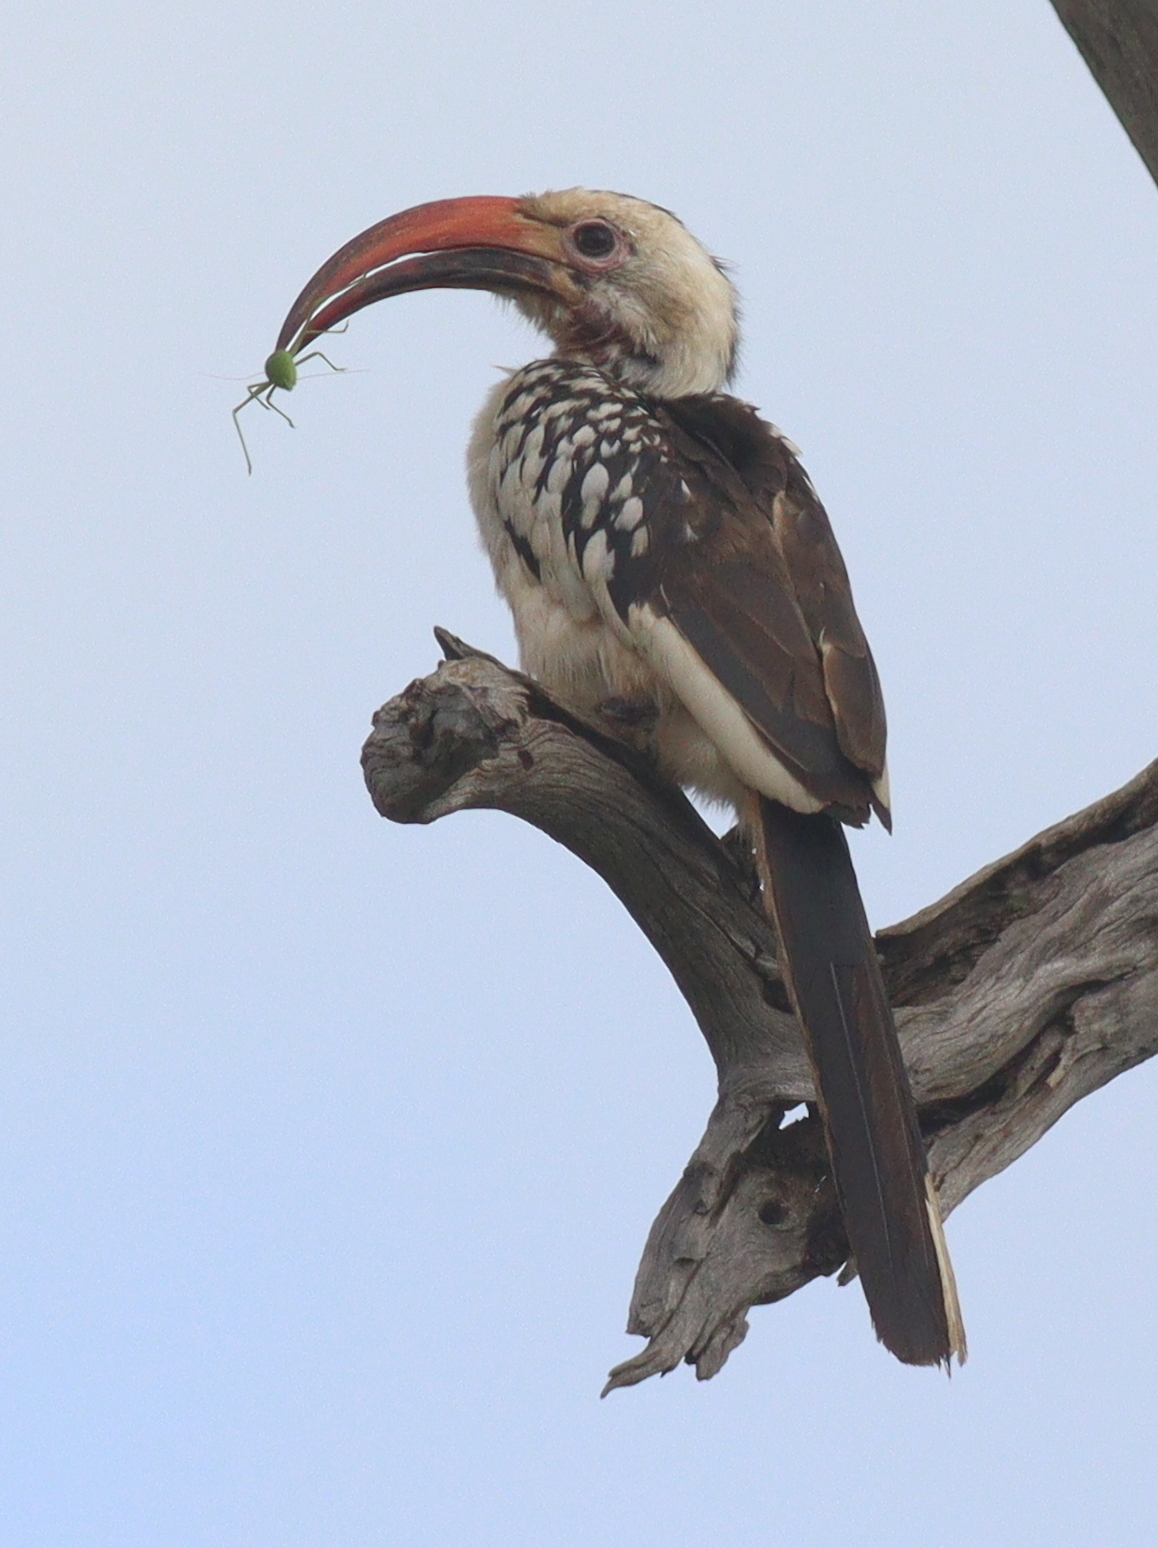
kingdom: Animalia
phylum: Chordata
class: Aves
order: Bucerotiformes
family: Bucerotidae
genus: Tockus
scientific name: Tockus erythrorhynchus
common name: Northern red-billed hornbill
